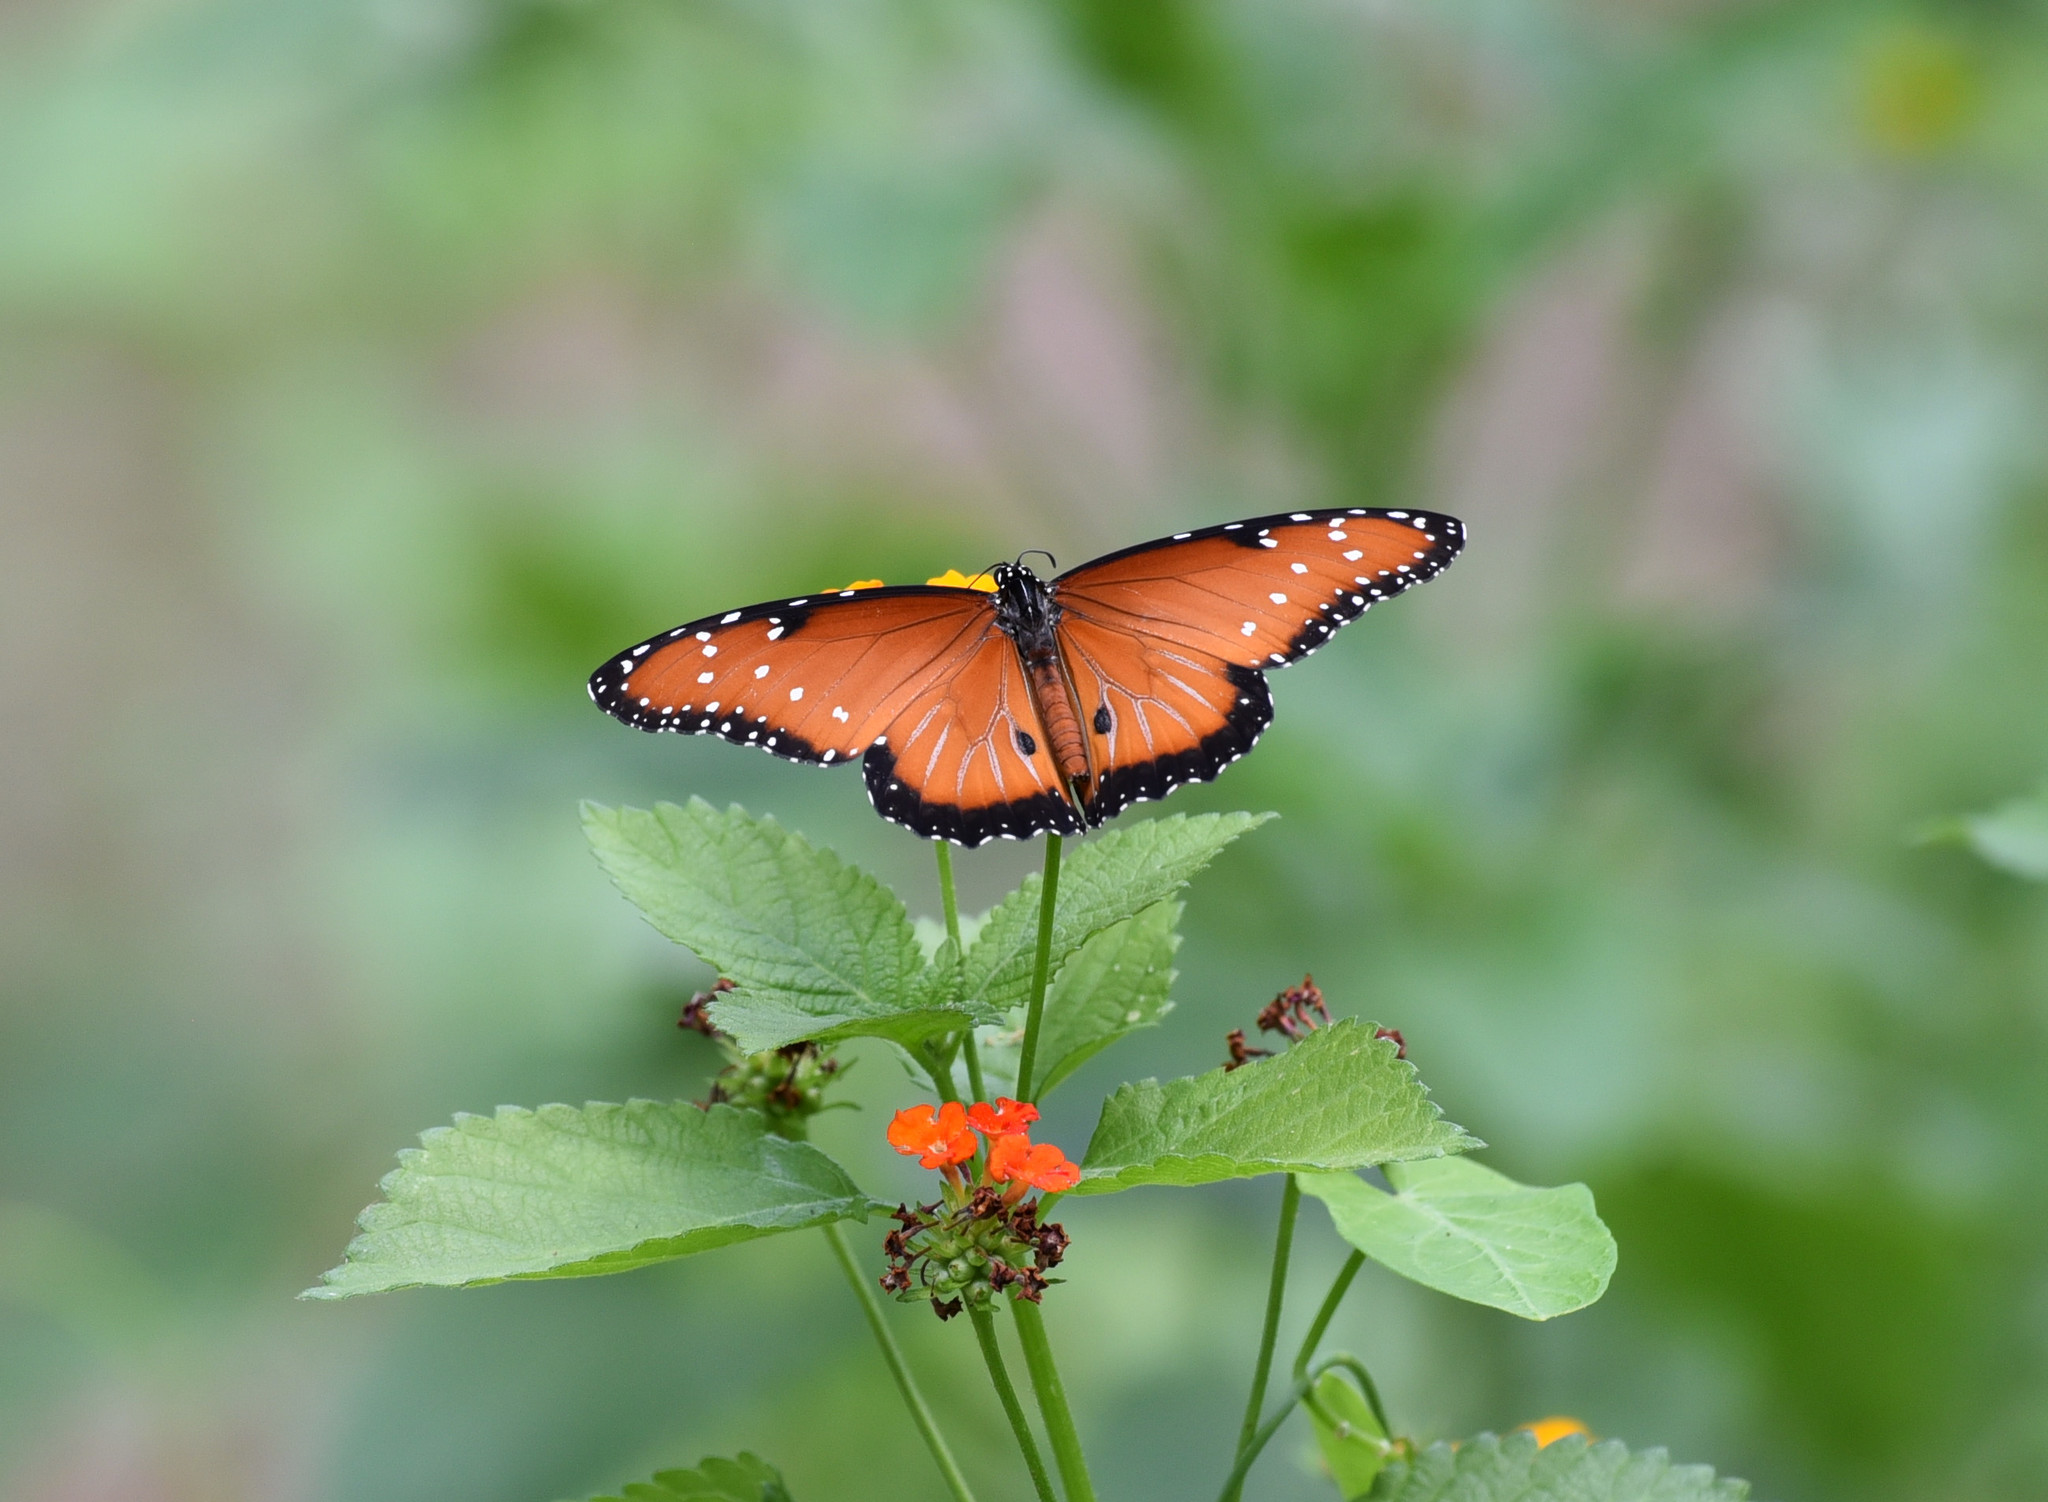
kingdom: Animalia
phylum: Arthropoda
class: Insecta
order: Lepidoptera
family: Nymphalidae
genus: Danaus
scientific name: Danaus gilippus
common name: Queen
